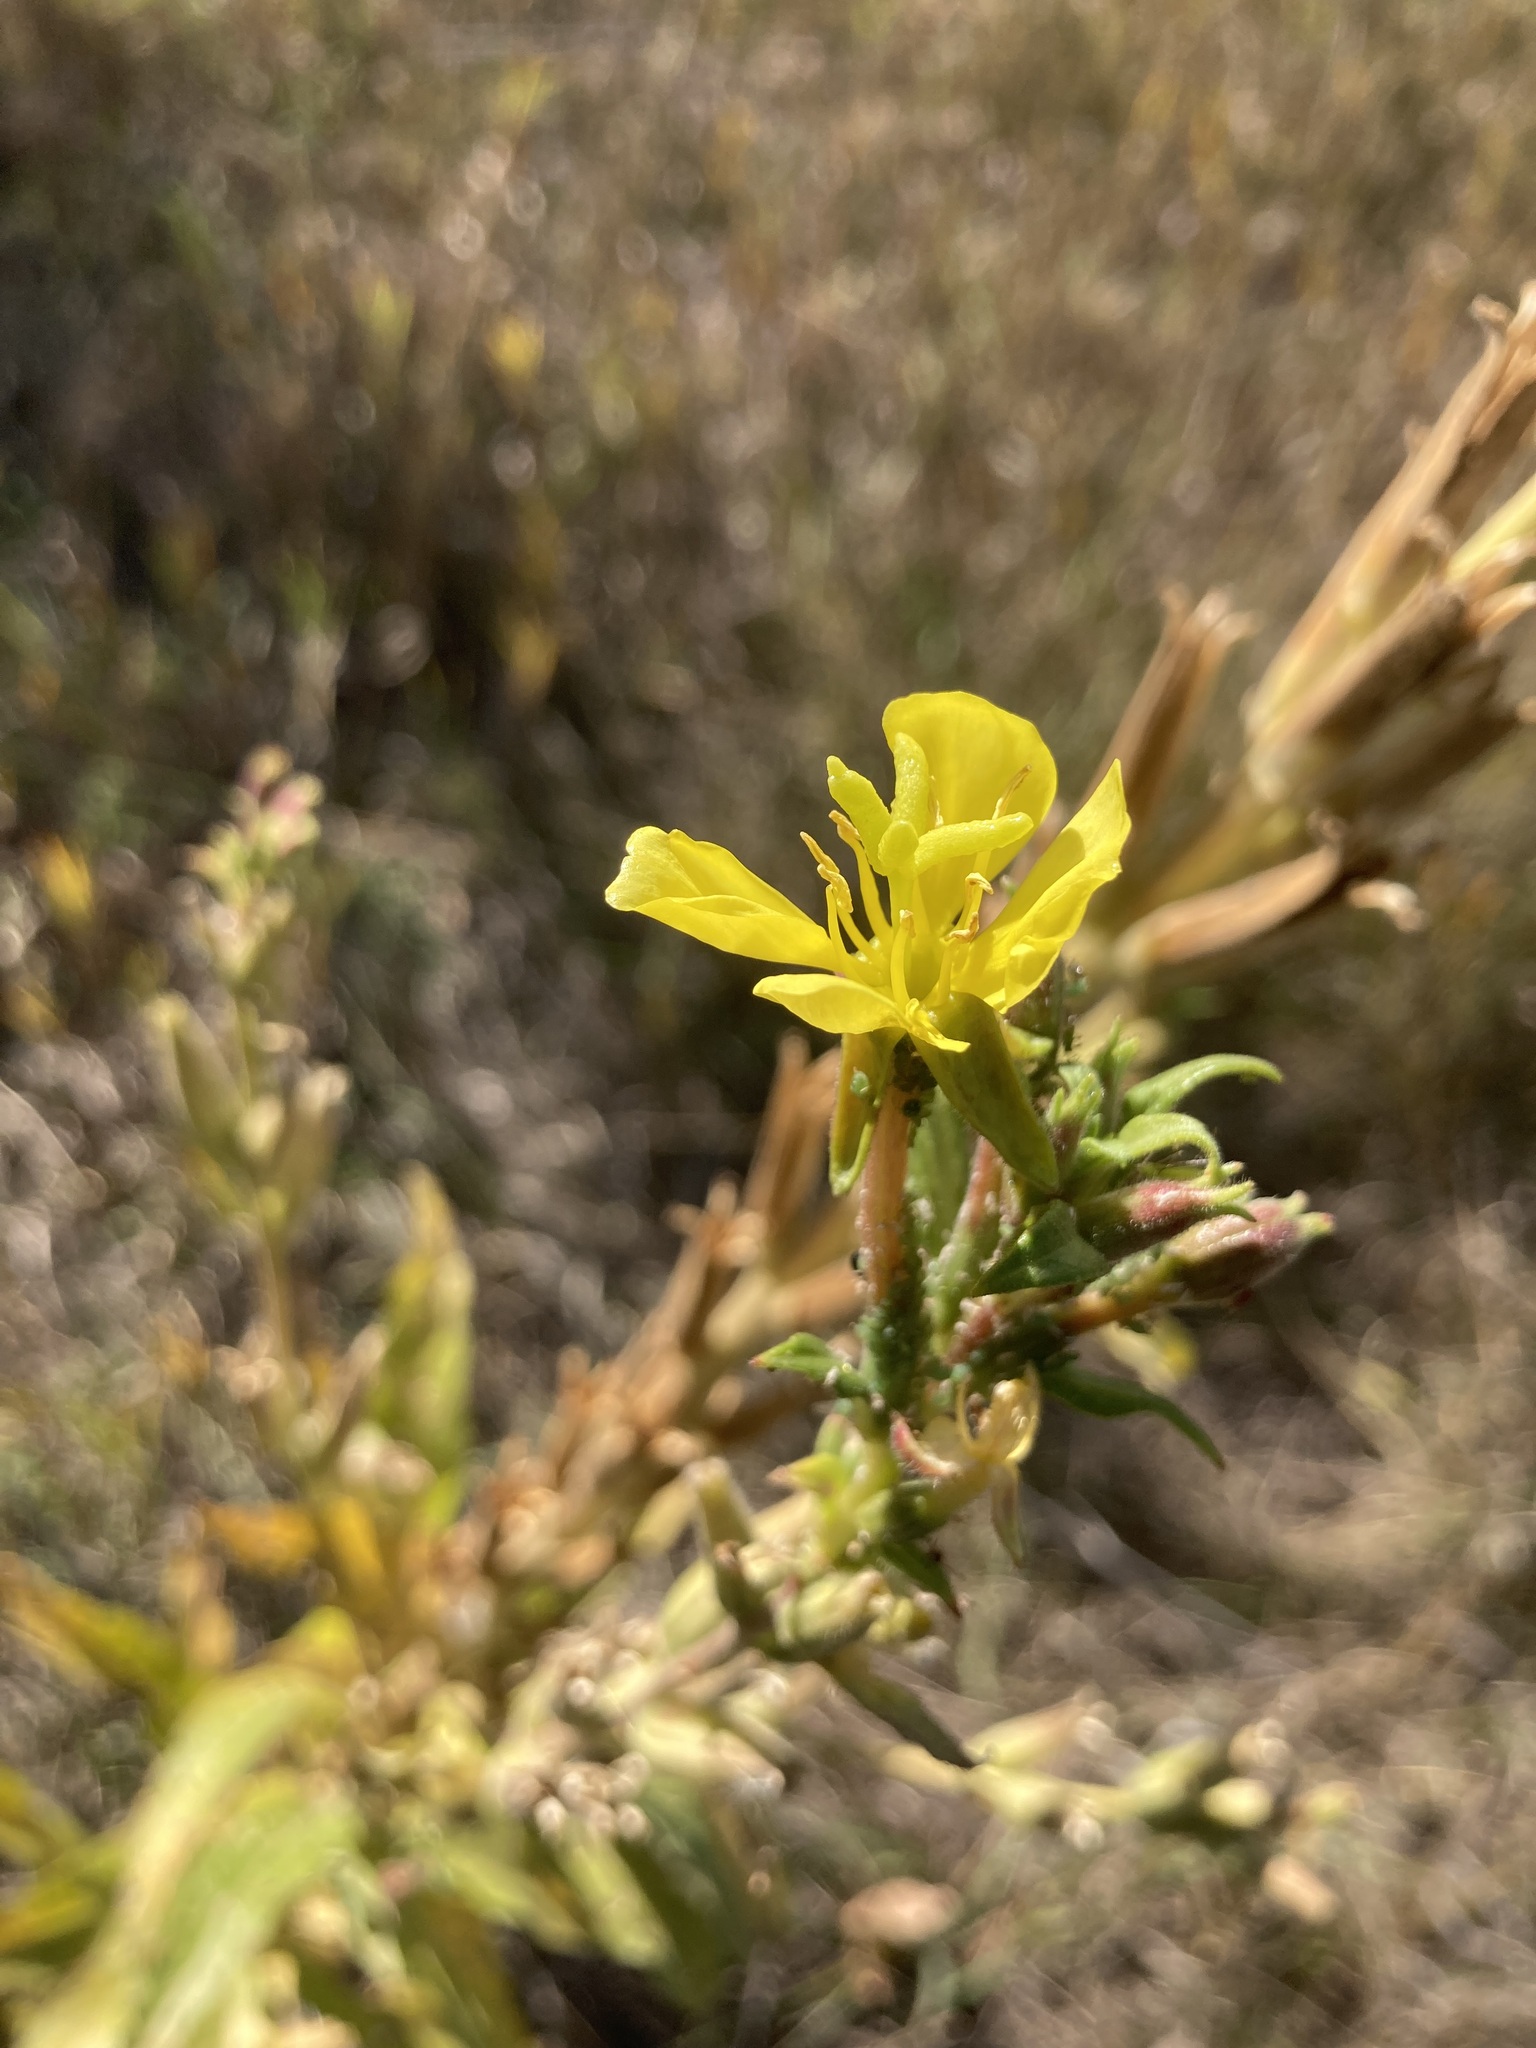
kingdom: Plantae
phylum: Tracheophyta
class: Magnoliopsida
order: Myrtales
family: Onagraceae
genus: Oenothera
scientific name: Oenothera villosa
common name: Hairy evening-primrose
